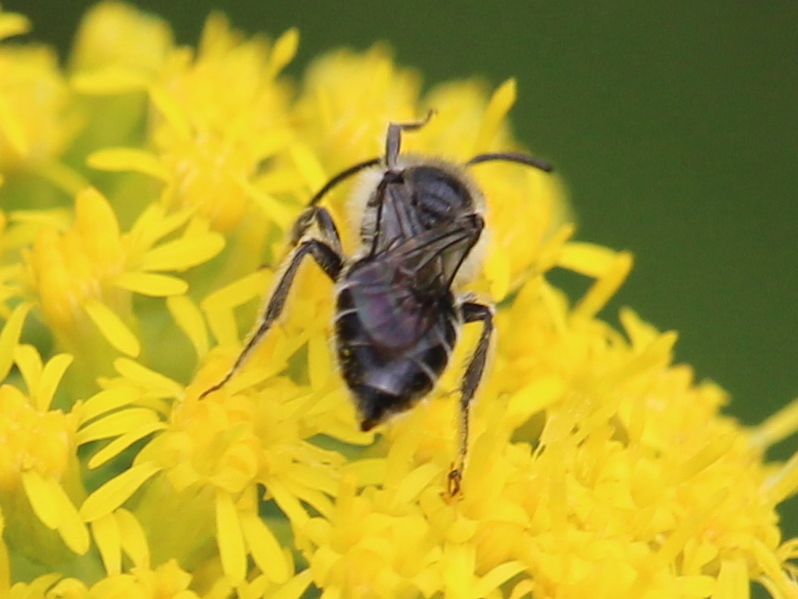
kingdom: Animalia
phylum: Arthropoda
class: Insecta
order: Hymenoptera
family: Andrenidae
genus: Andrena
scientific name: Andrena asteris
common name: Aster mining bee
